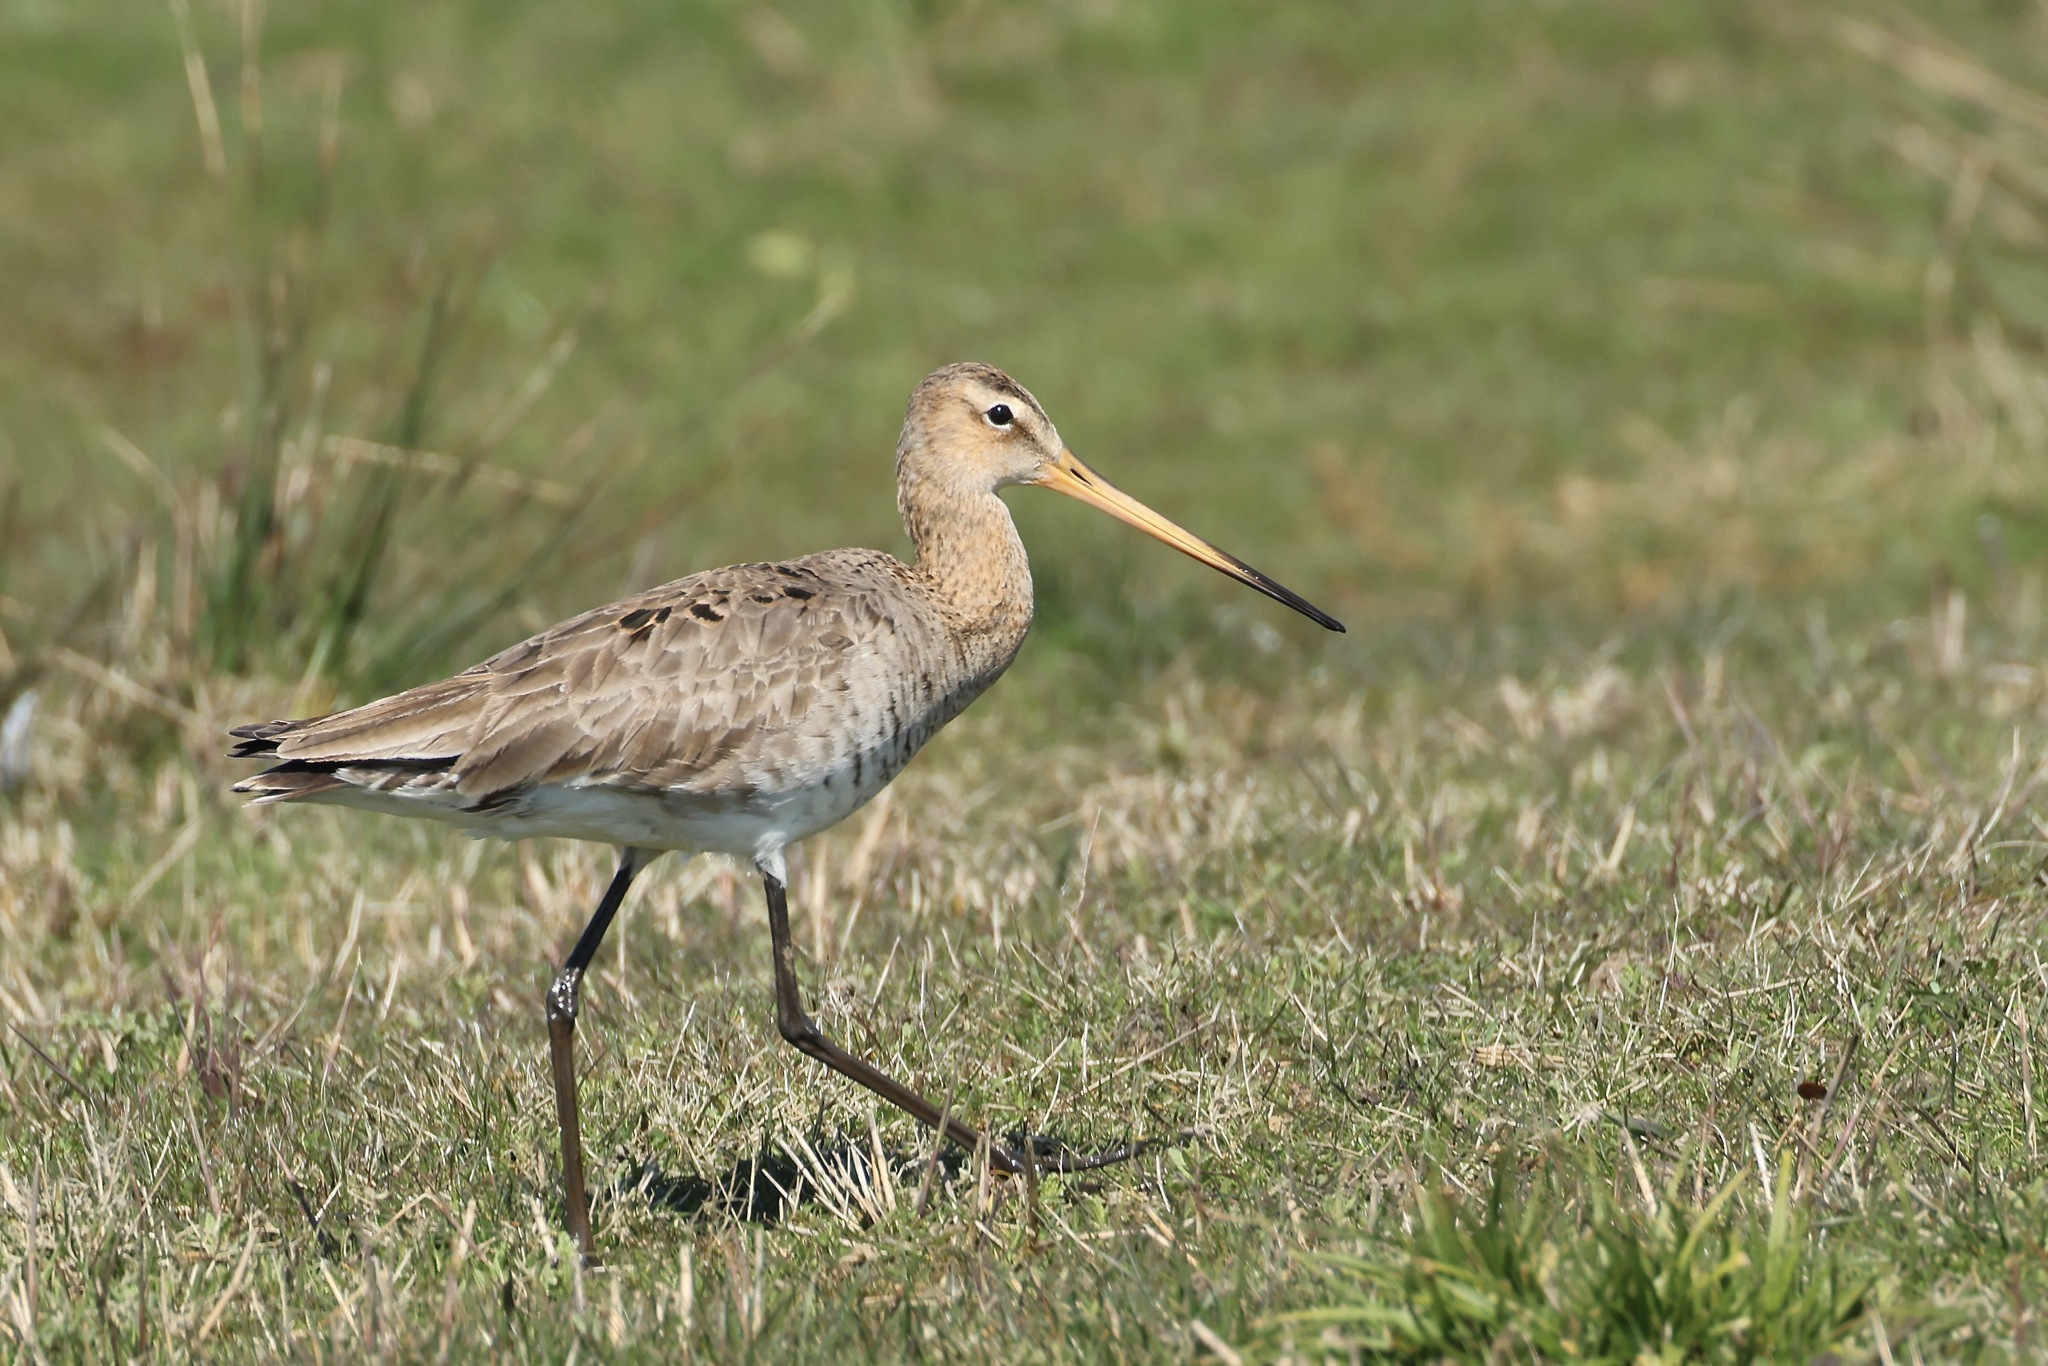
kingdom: Animalia
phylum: Chordata
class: Aves
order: Charadriiformes
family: Scolopacidae
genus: Limosa
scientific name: Limosa limosa
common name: Black-tailed godwit
